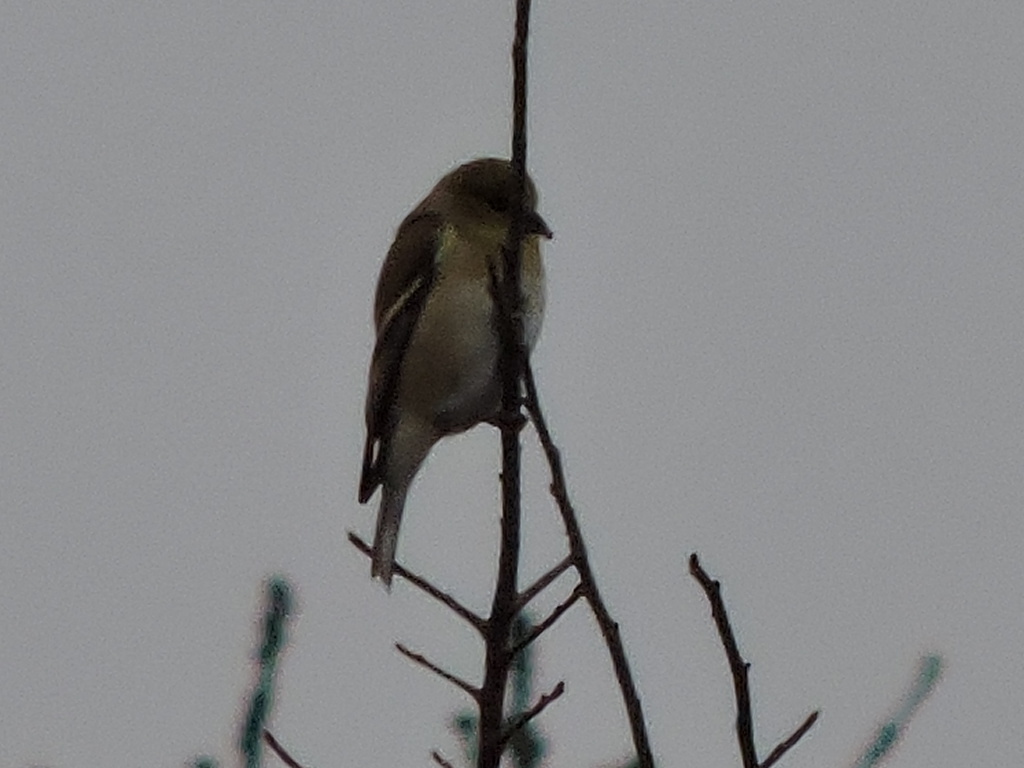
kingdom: Animalia
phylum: Chordata
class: Aves
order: Passeriformes
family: Fringillidae
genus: Spinus
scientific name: Spinus tristis
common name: American goldfinch
